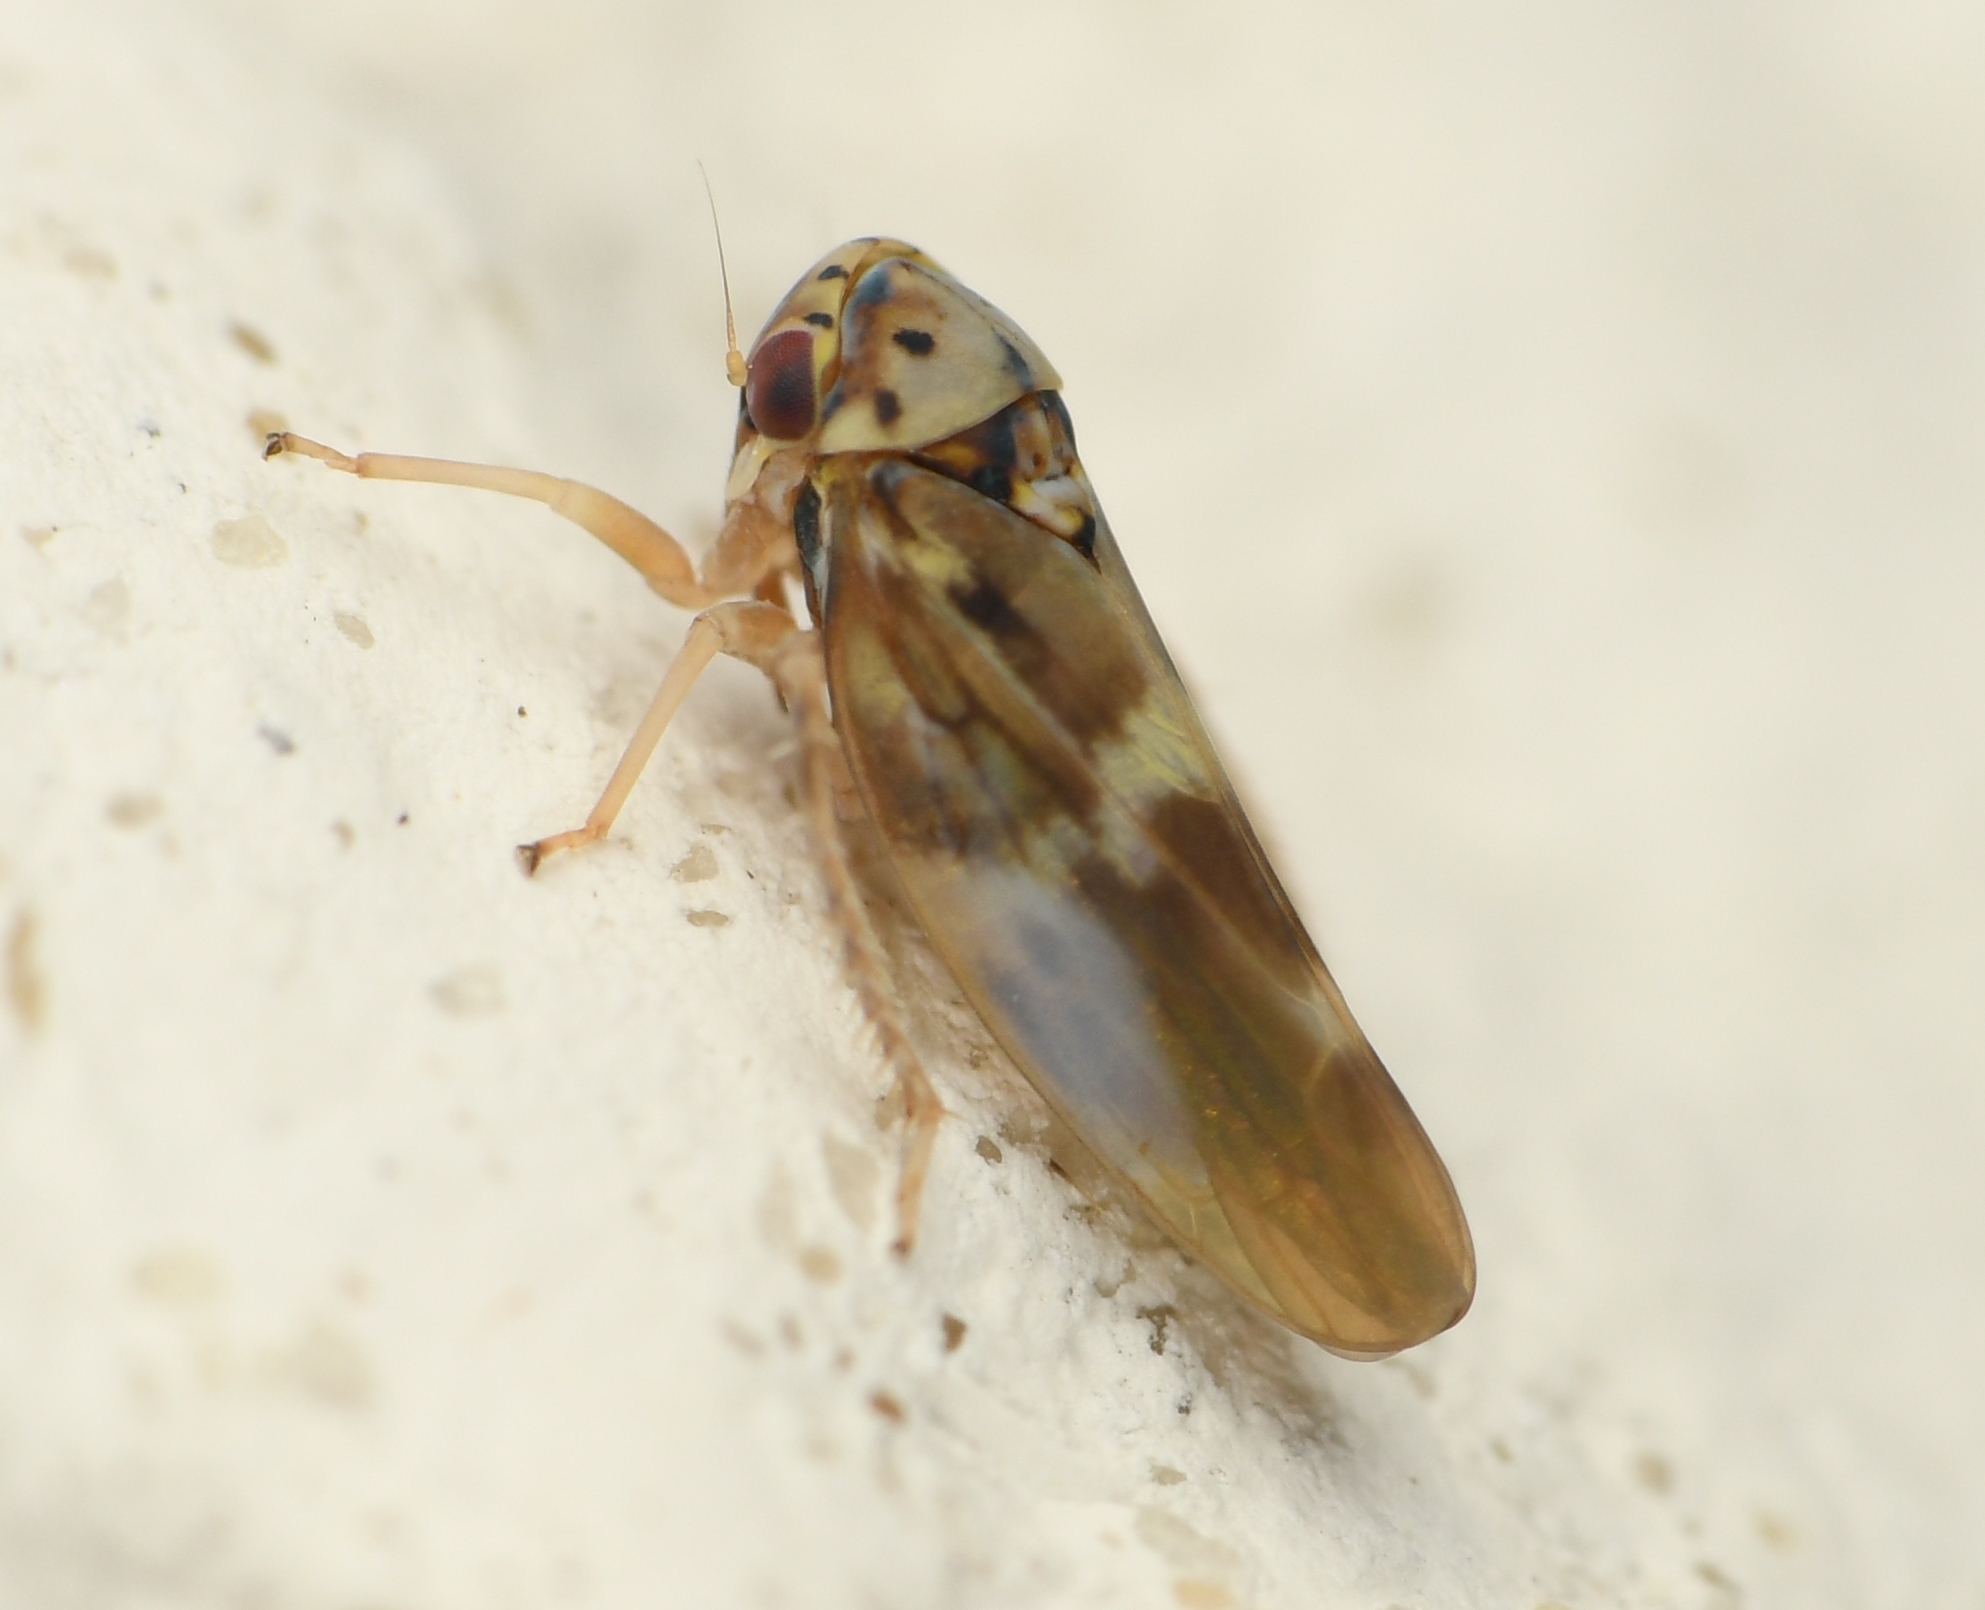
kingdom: Animalia
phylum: Arthropoda
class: Insecta
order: Hemiptera
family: Cicadellidae
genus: Agalliopsis
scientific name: Agalliopsis cervina
